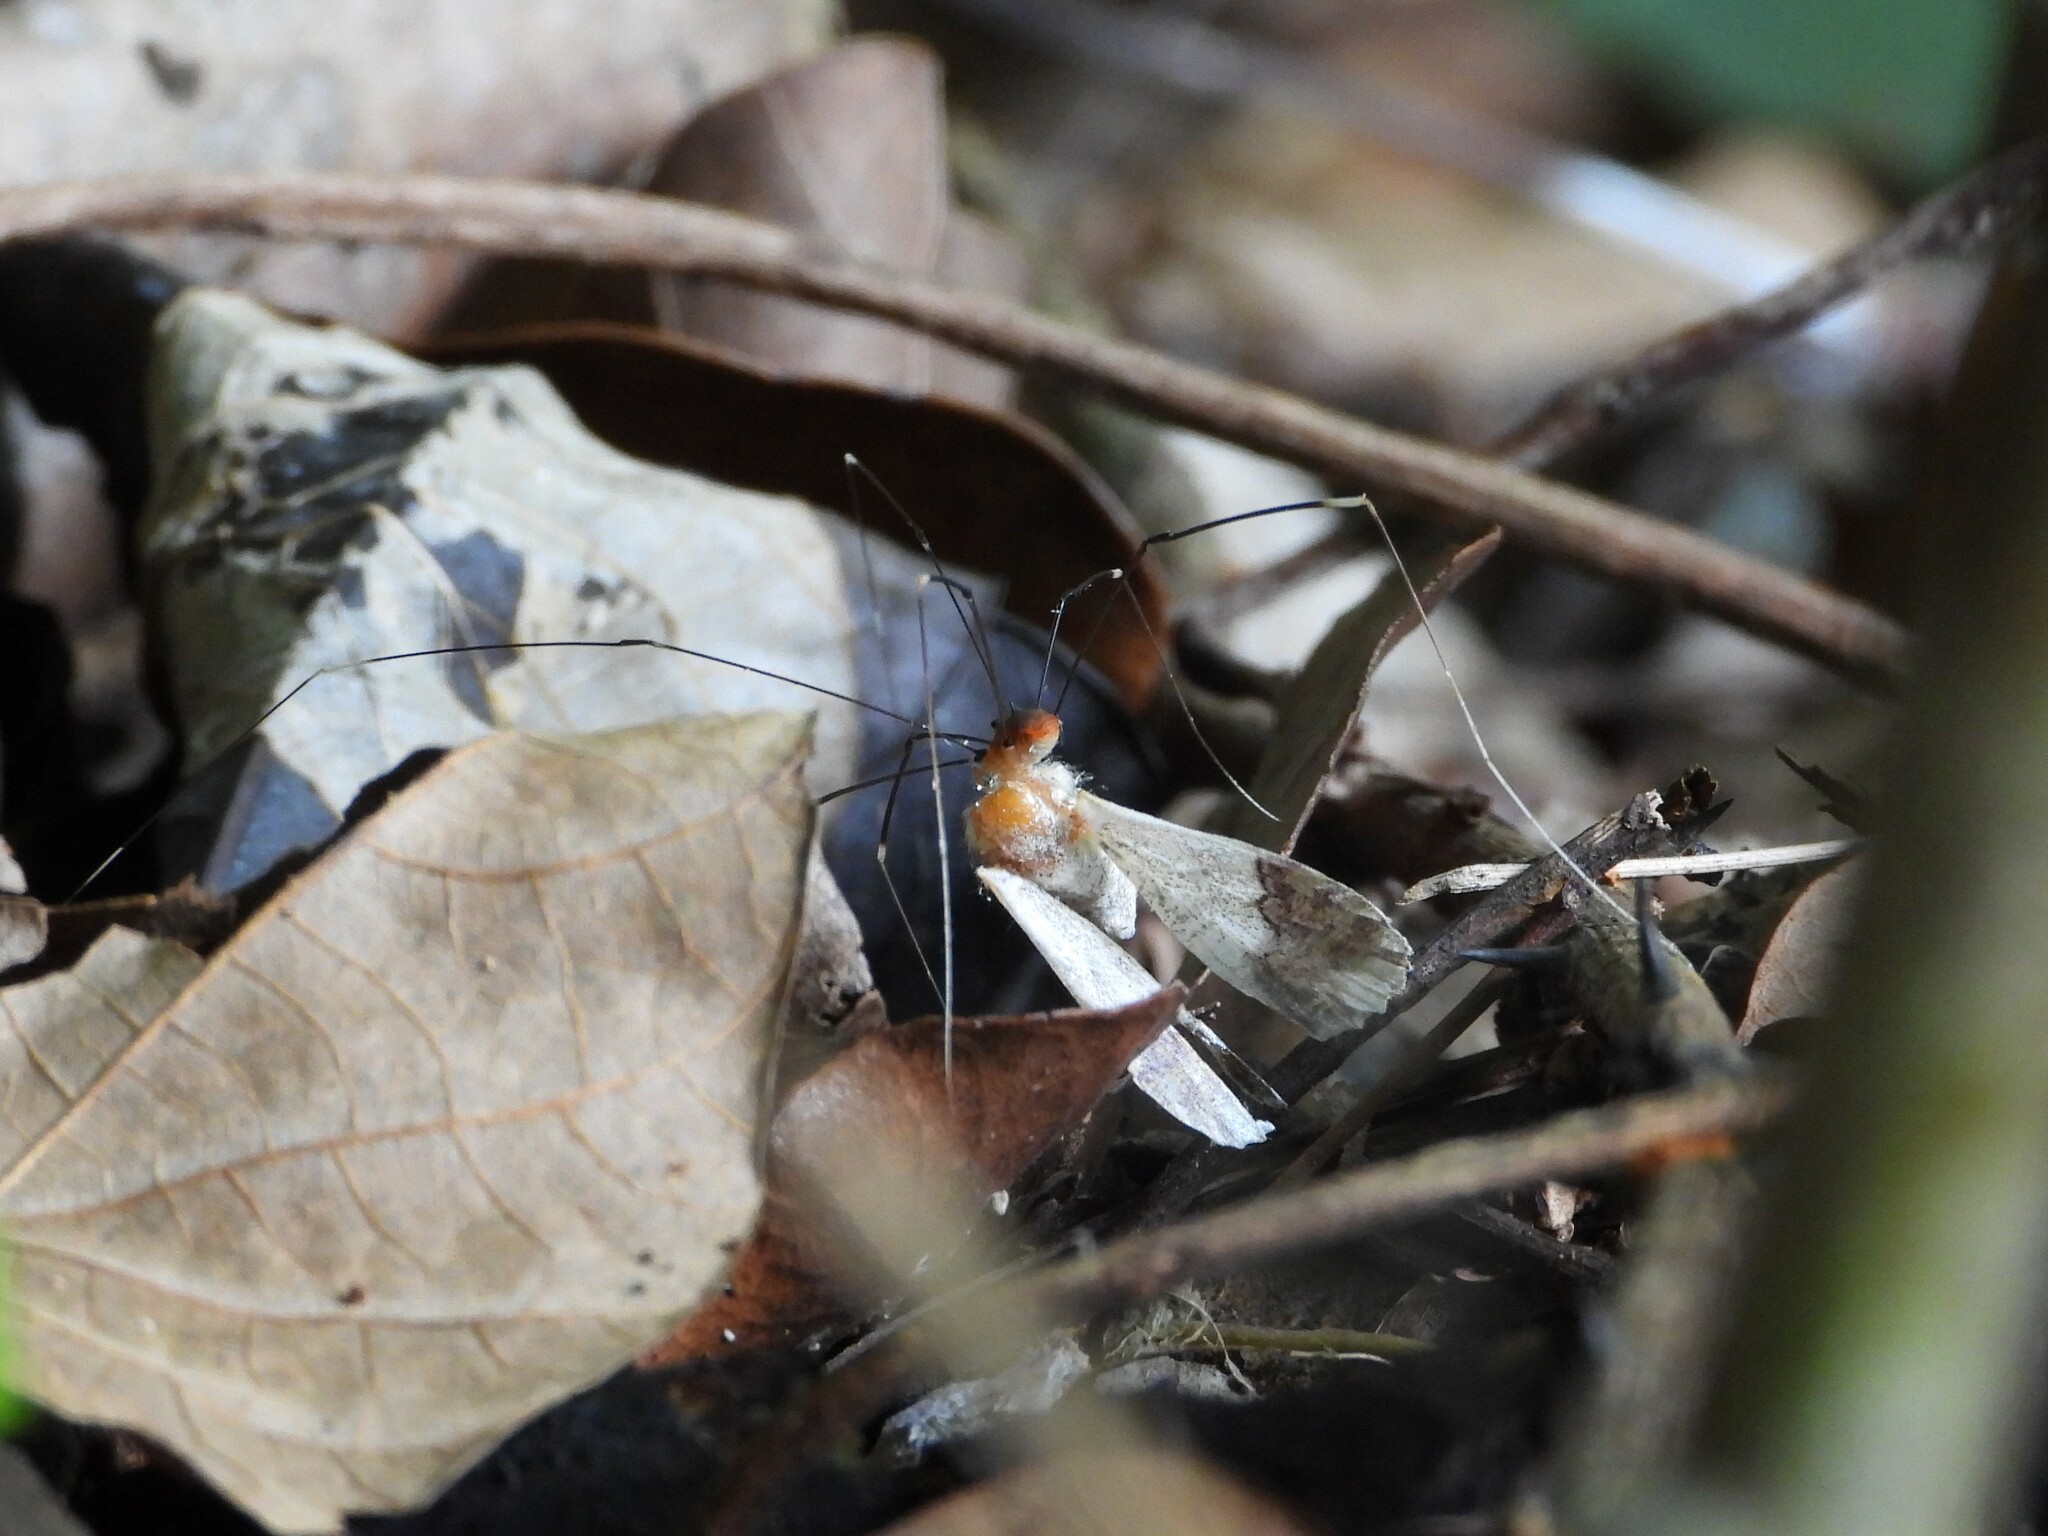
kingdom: Animalia
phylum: Arthropoda
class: Arachnida
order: Opiliones
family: Sclerosomatidae
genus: Pseudogagrella
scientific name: Pseudogagrella splendens
